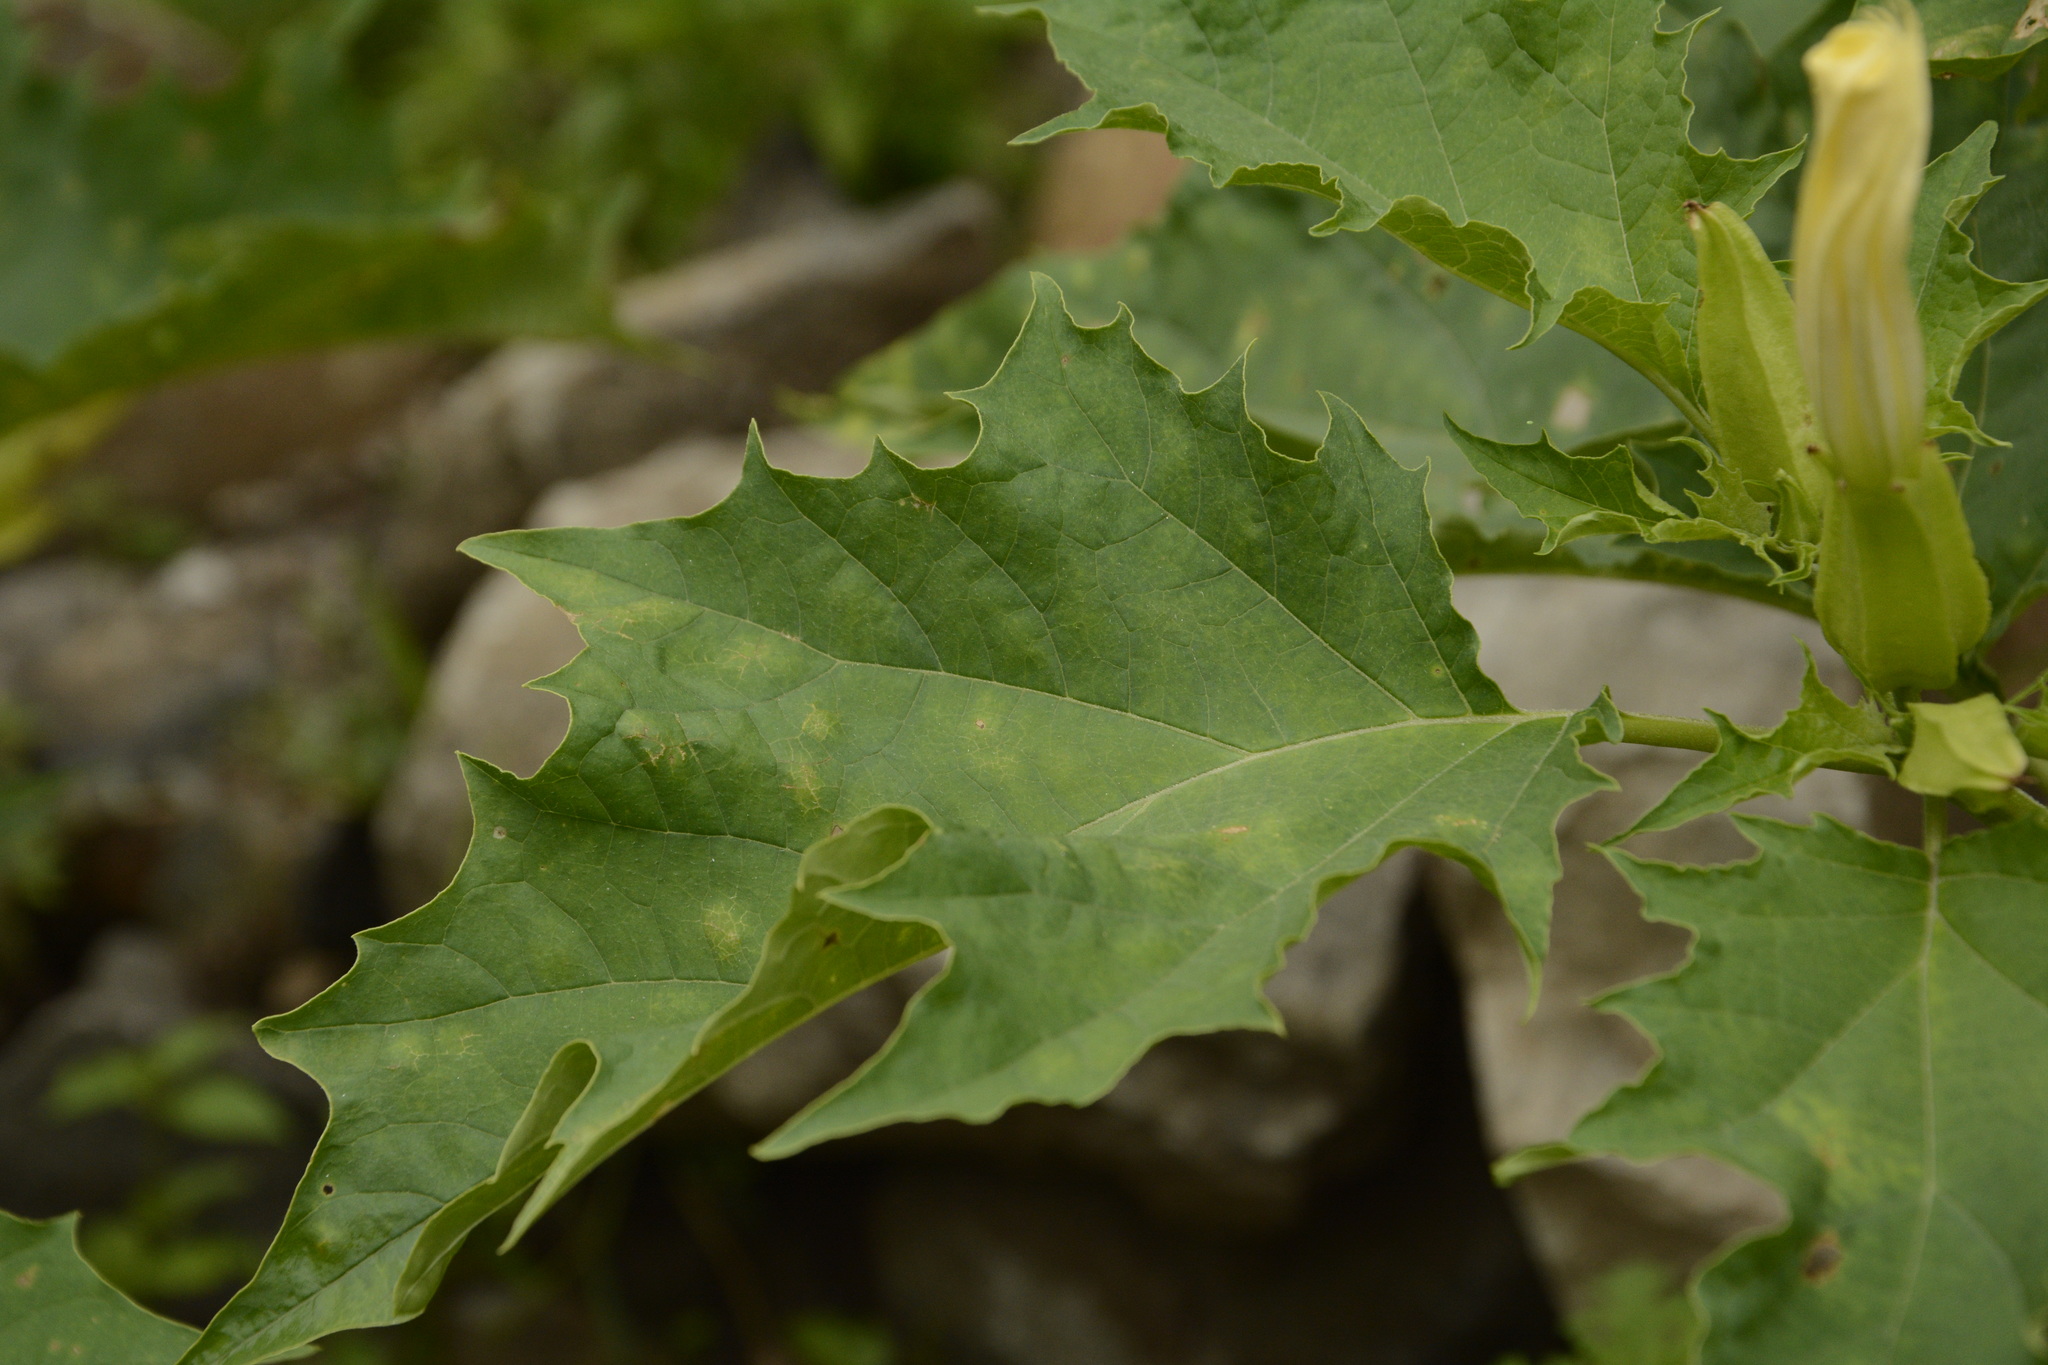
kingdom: Plantae
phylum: Tracheophyta
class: Magnoliopsida
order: Solanales
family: Solanaceae
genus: Datura
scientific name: Datura stramonium
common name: Thorn-apple
